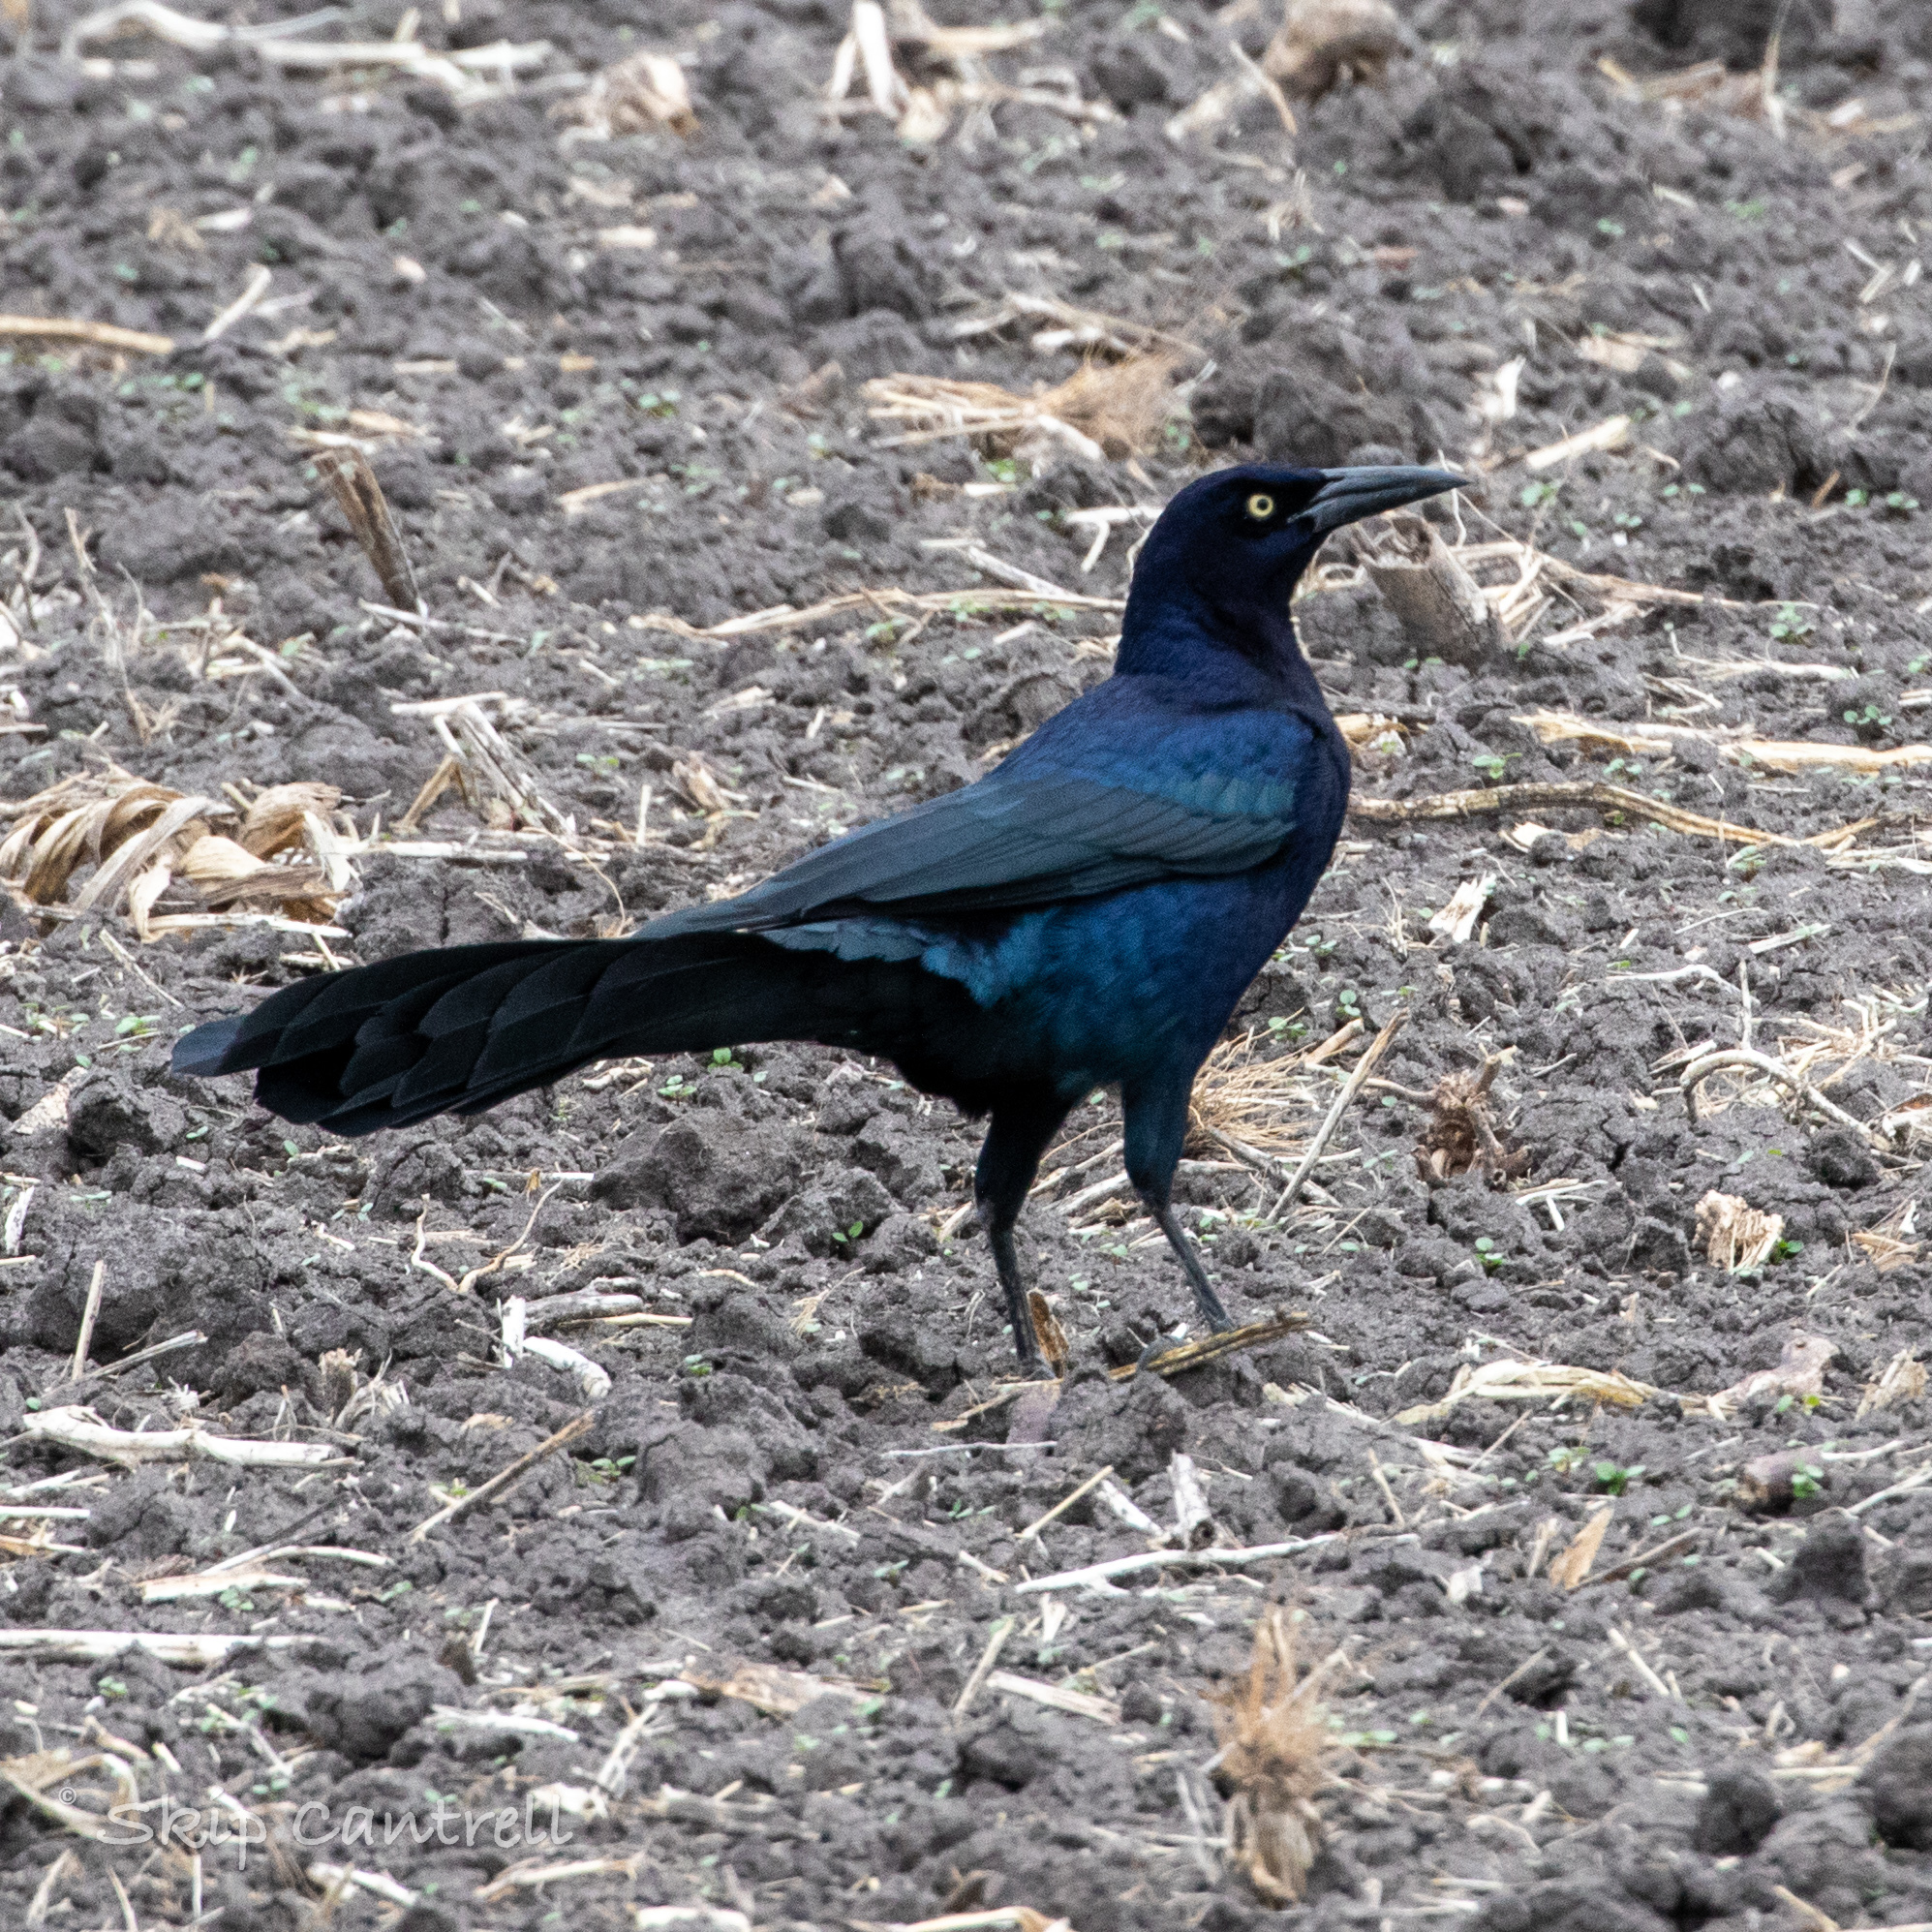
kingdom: Animalia
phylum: Chordata
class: Aves
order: Passeriformes
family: Icteridae
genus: Quiscalus
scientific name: Quiscalus mexicanus
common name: Great-tailed grackle
